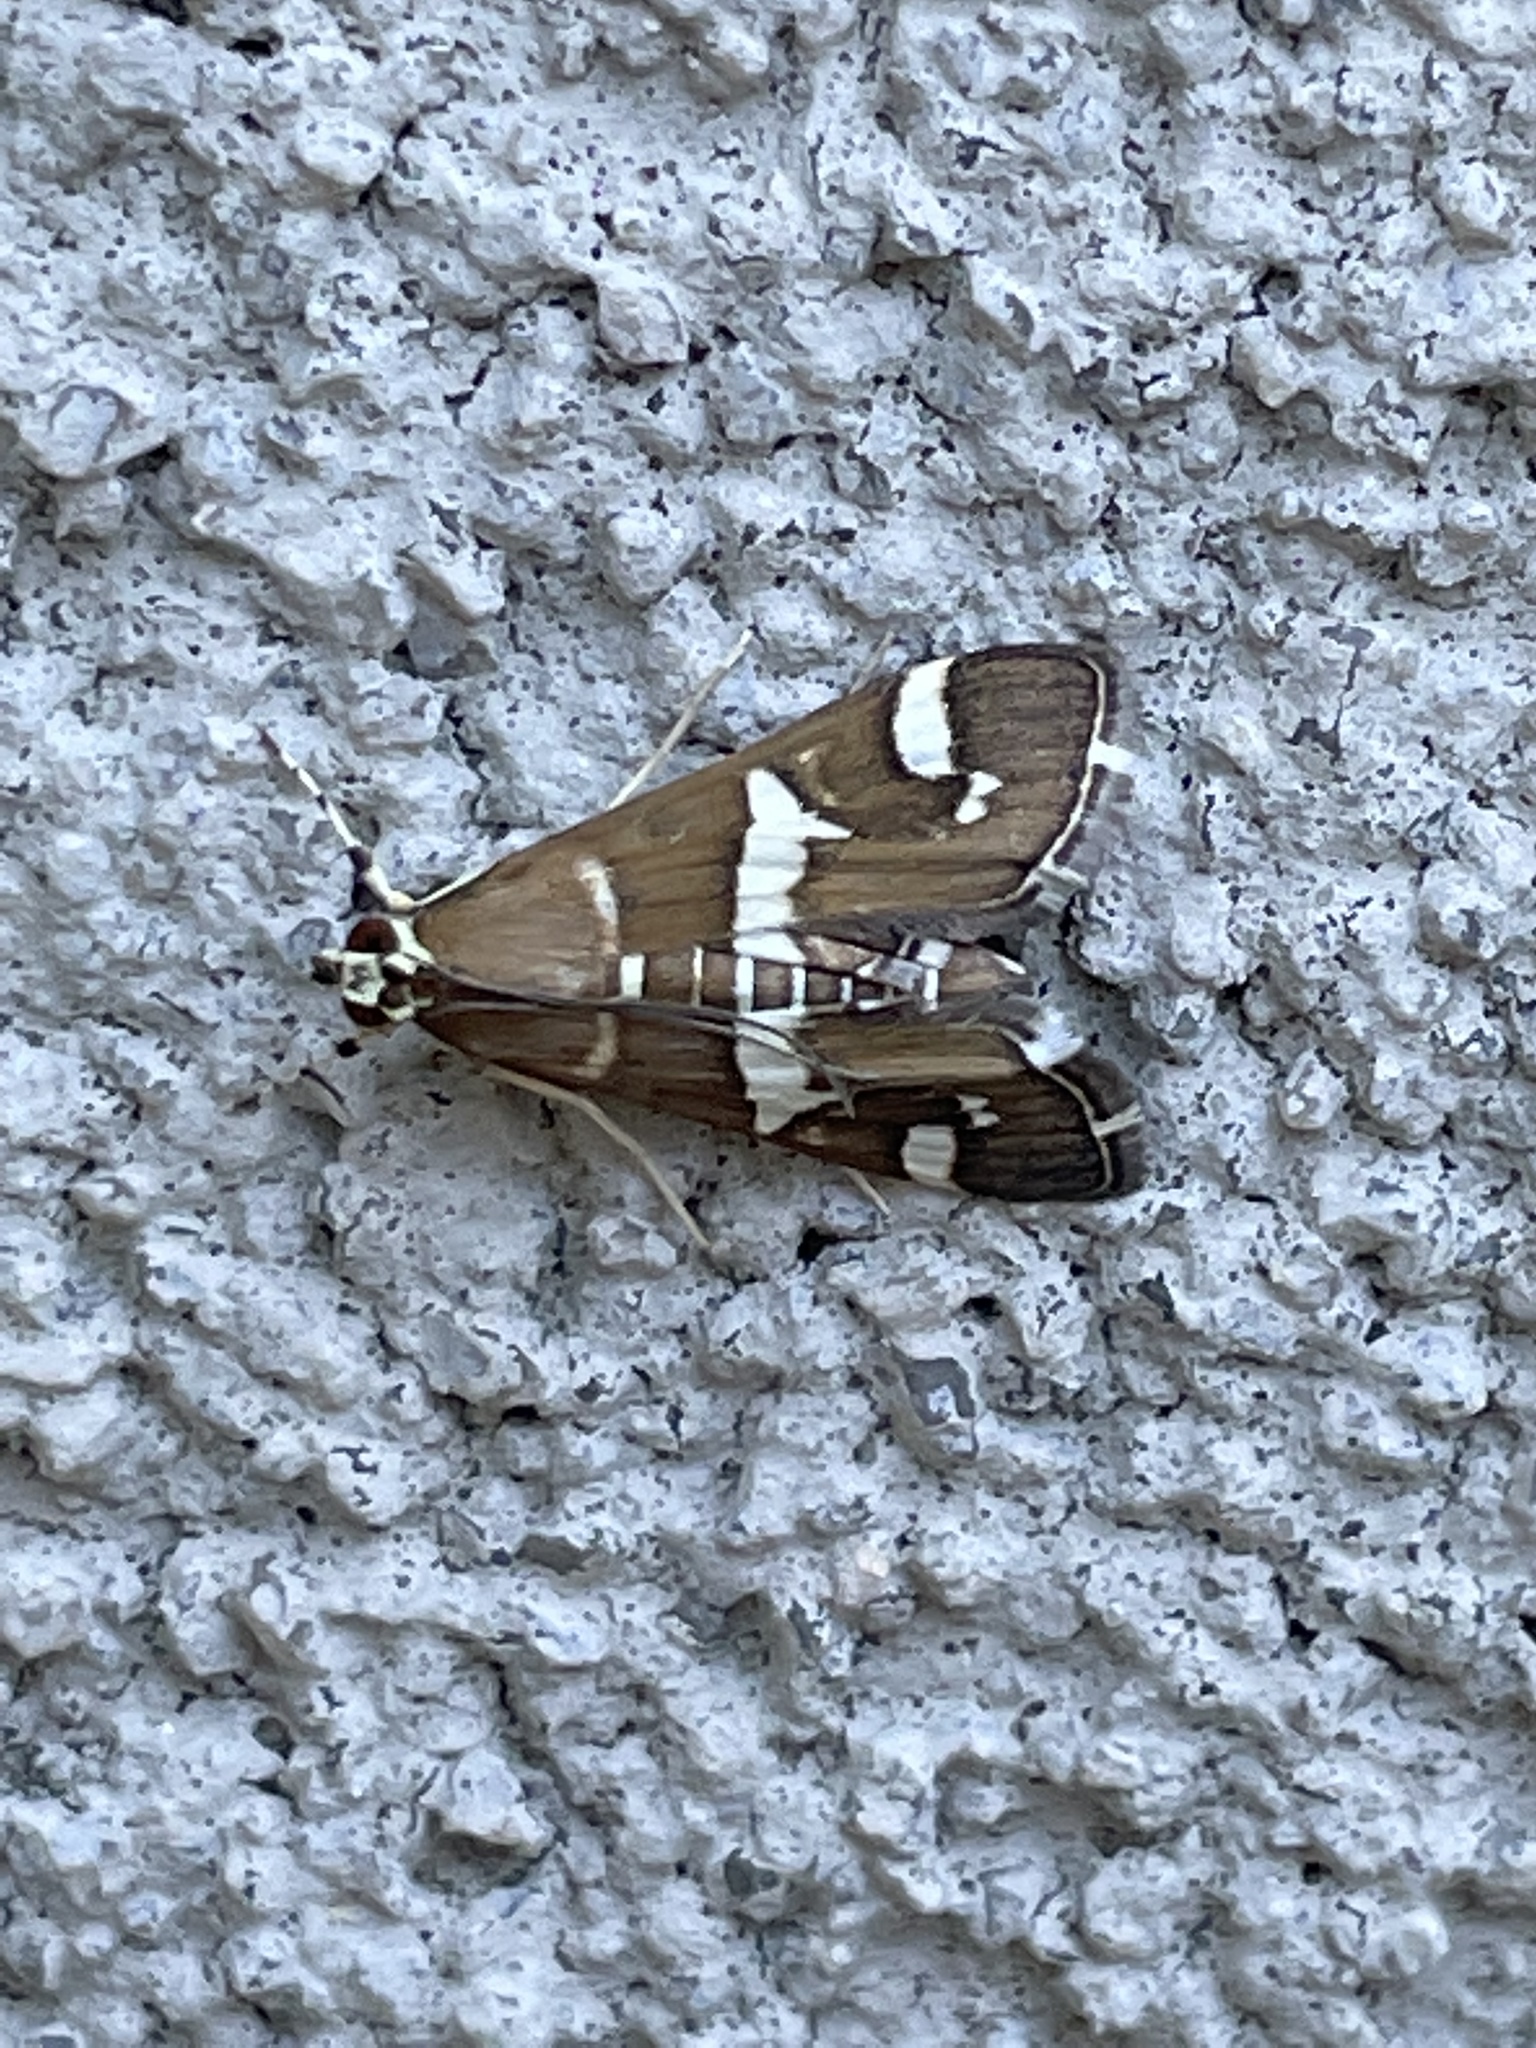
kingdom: Animalia
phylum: Arthropoda
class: Insecta
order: Lepidoptera
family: Crambidae
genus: Spoladea
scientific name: Spoladea recurvalis
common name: Beet webworm moth
